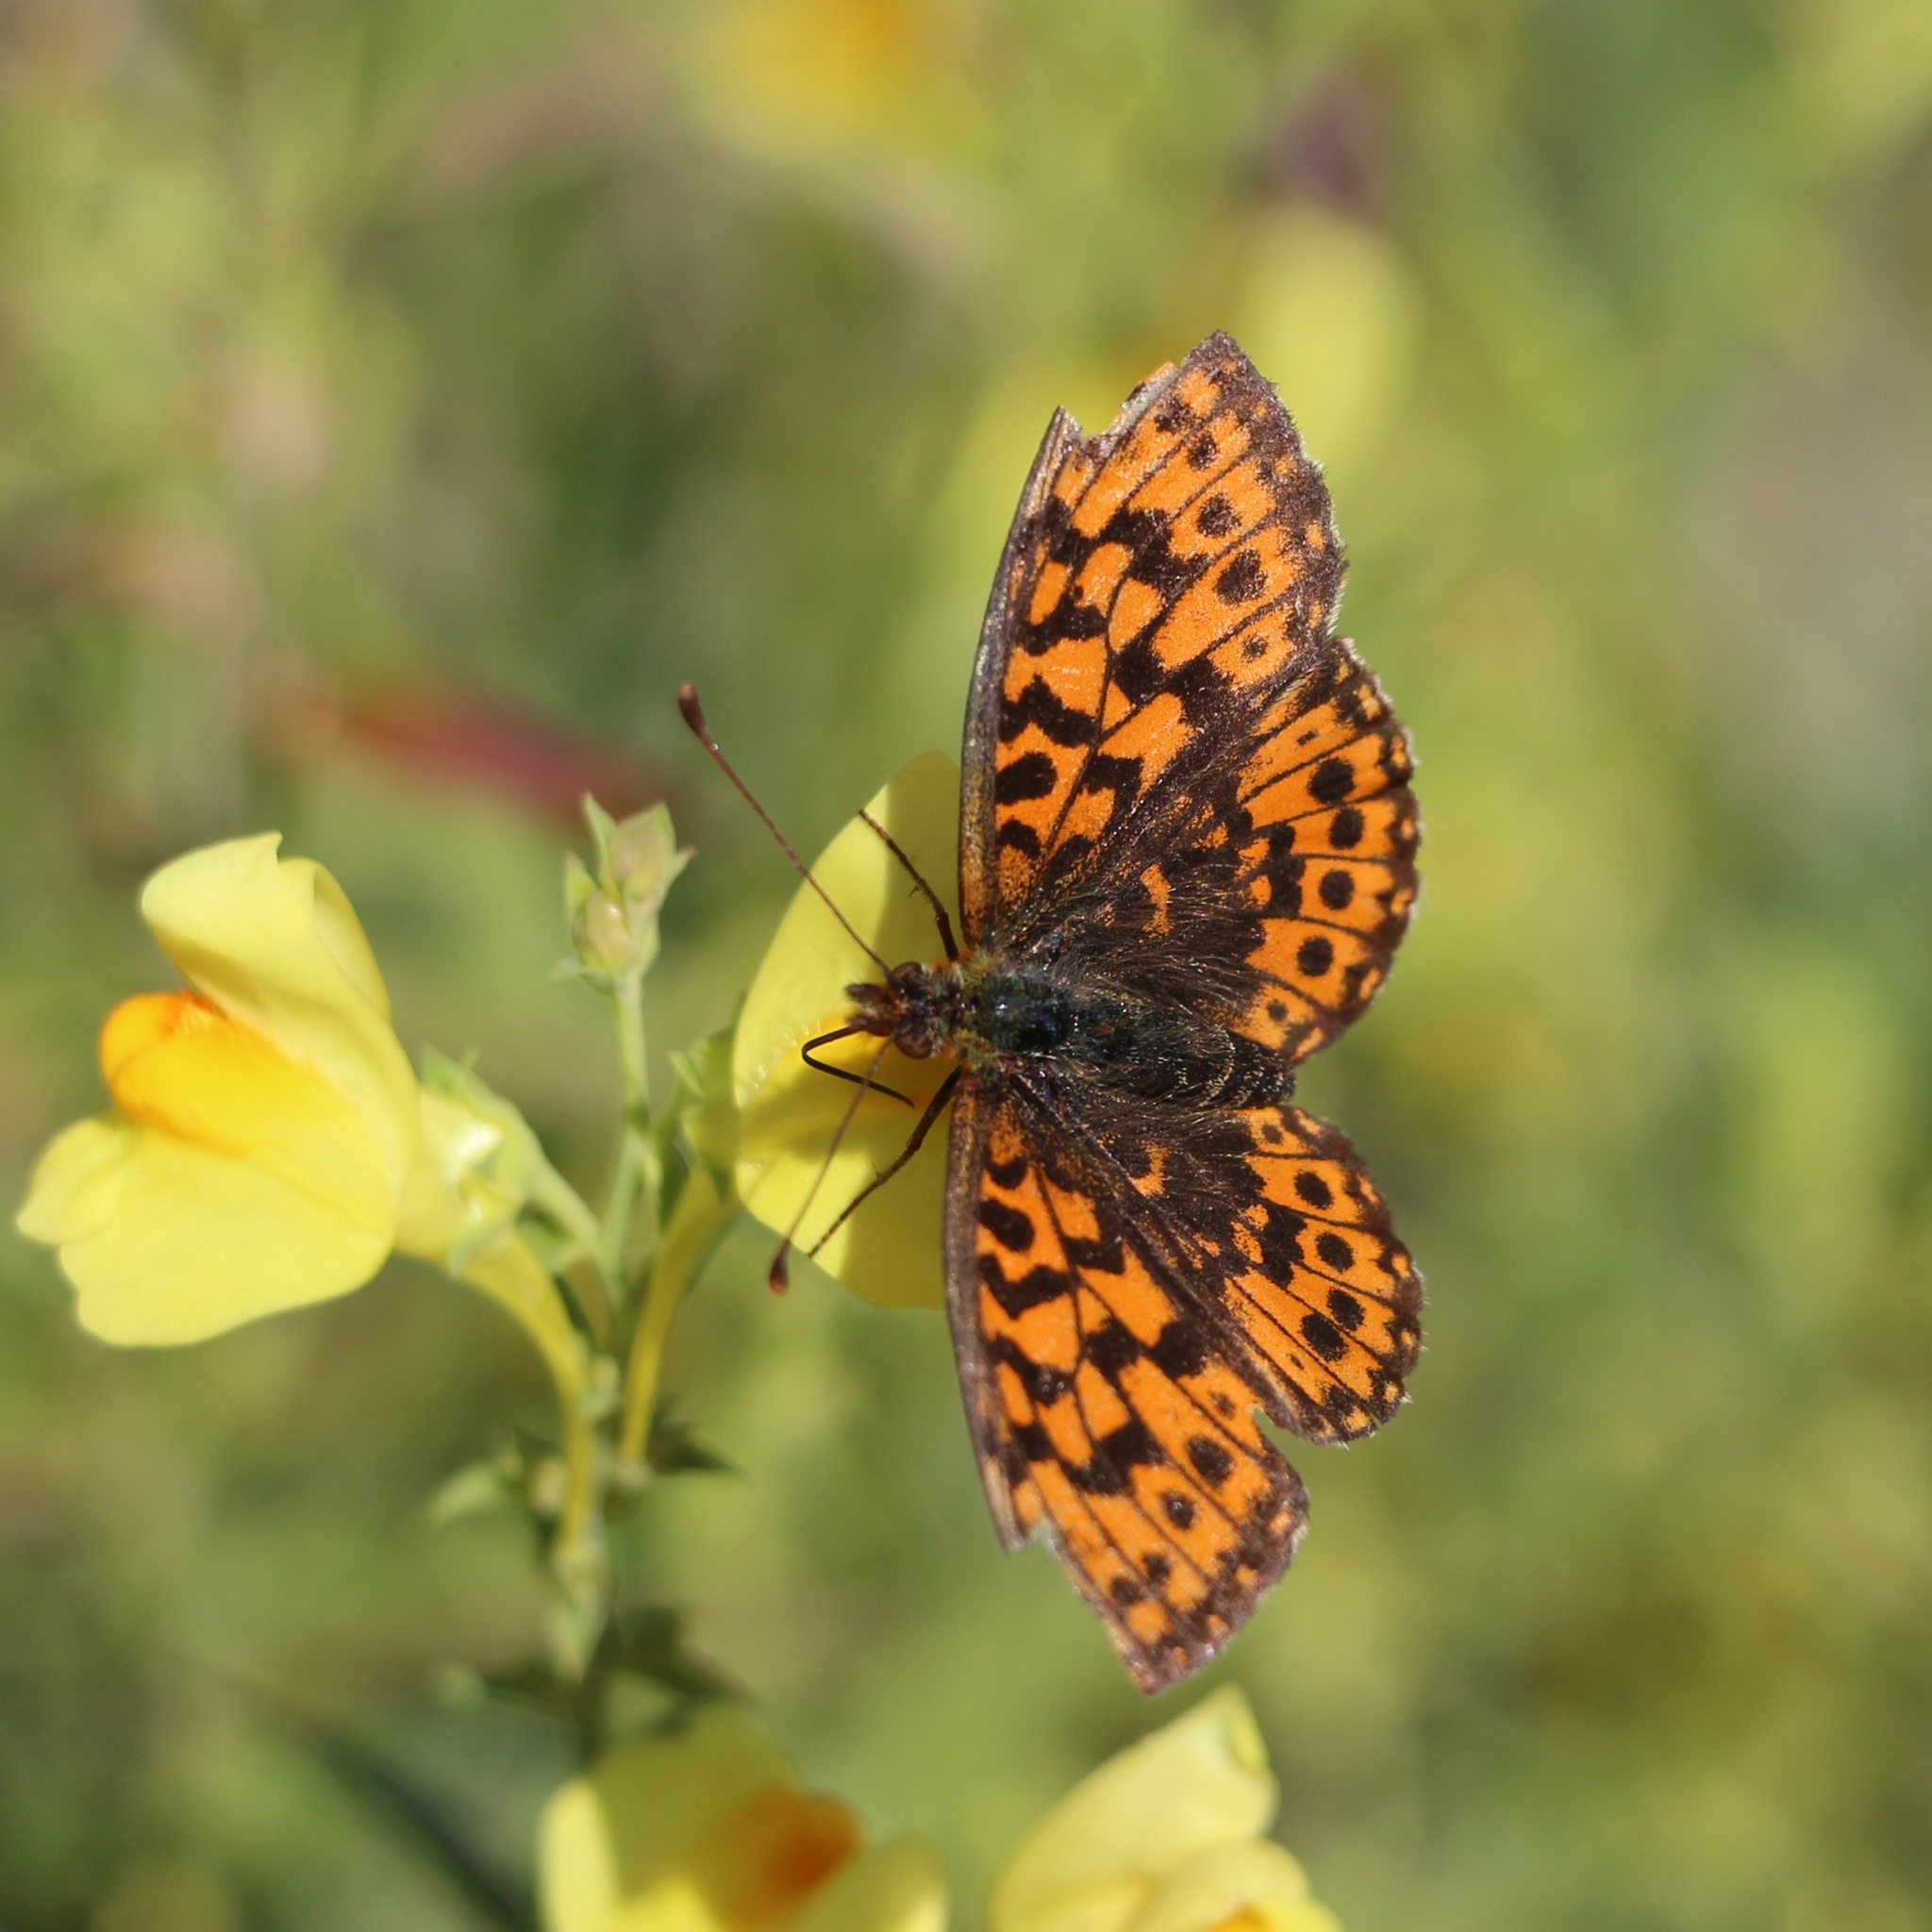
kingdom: Animalia
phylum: Arthropoda
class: Insecta
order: Lepidoptera
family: Nymphalidae
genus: Boloria
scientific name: Boloria dia
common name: Weaver's fritillary
